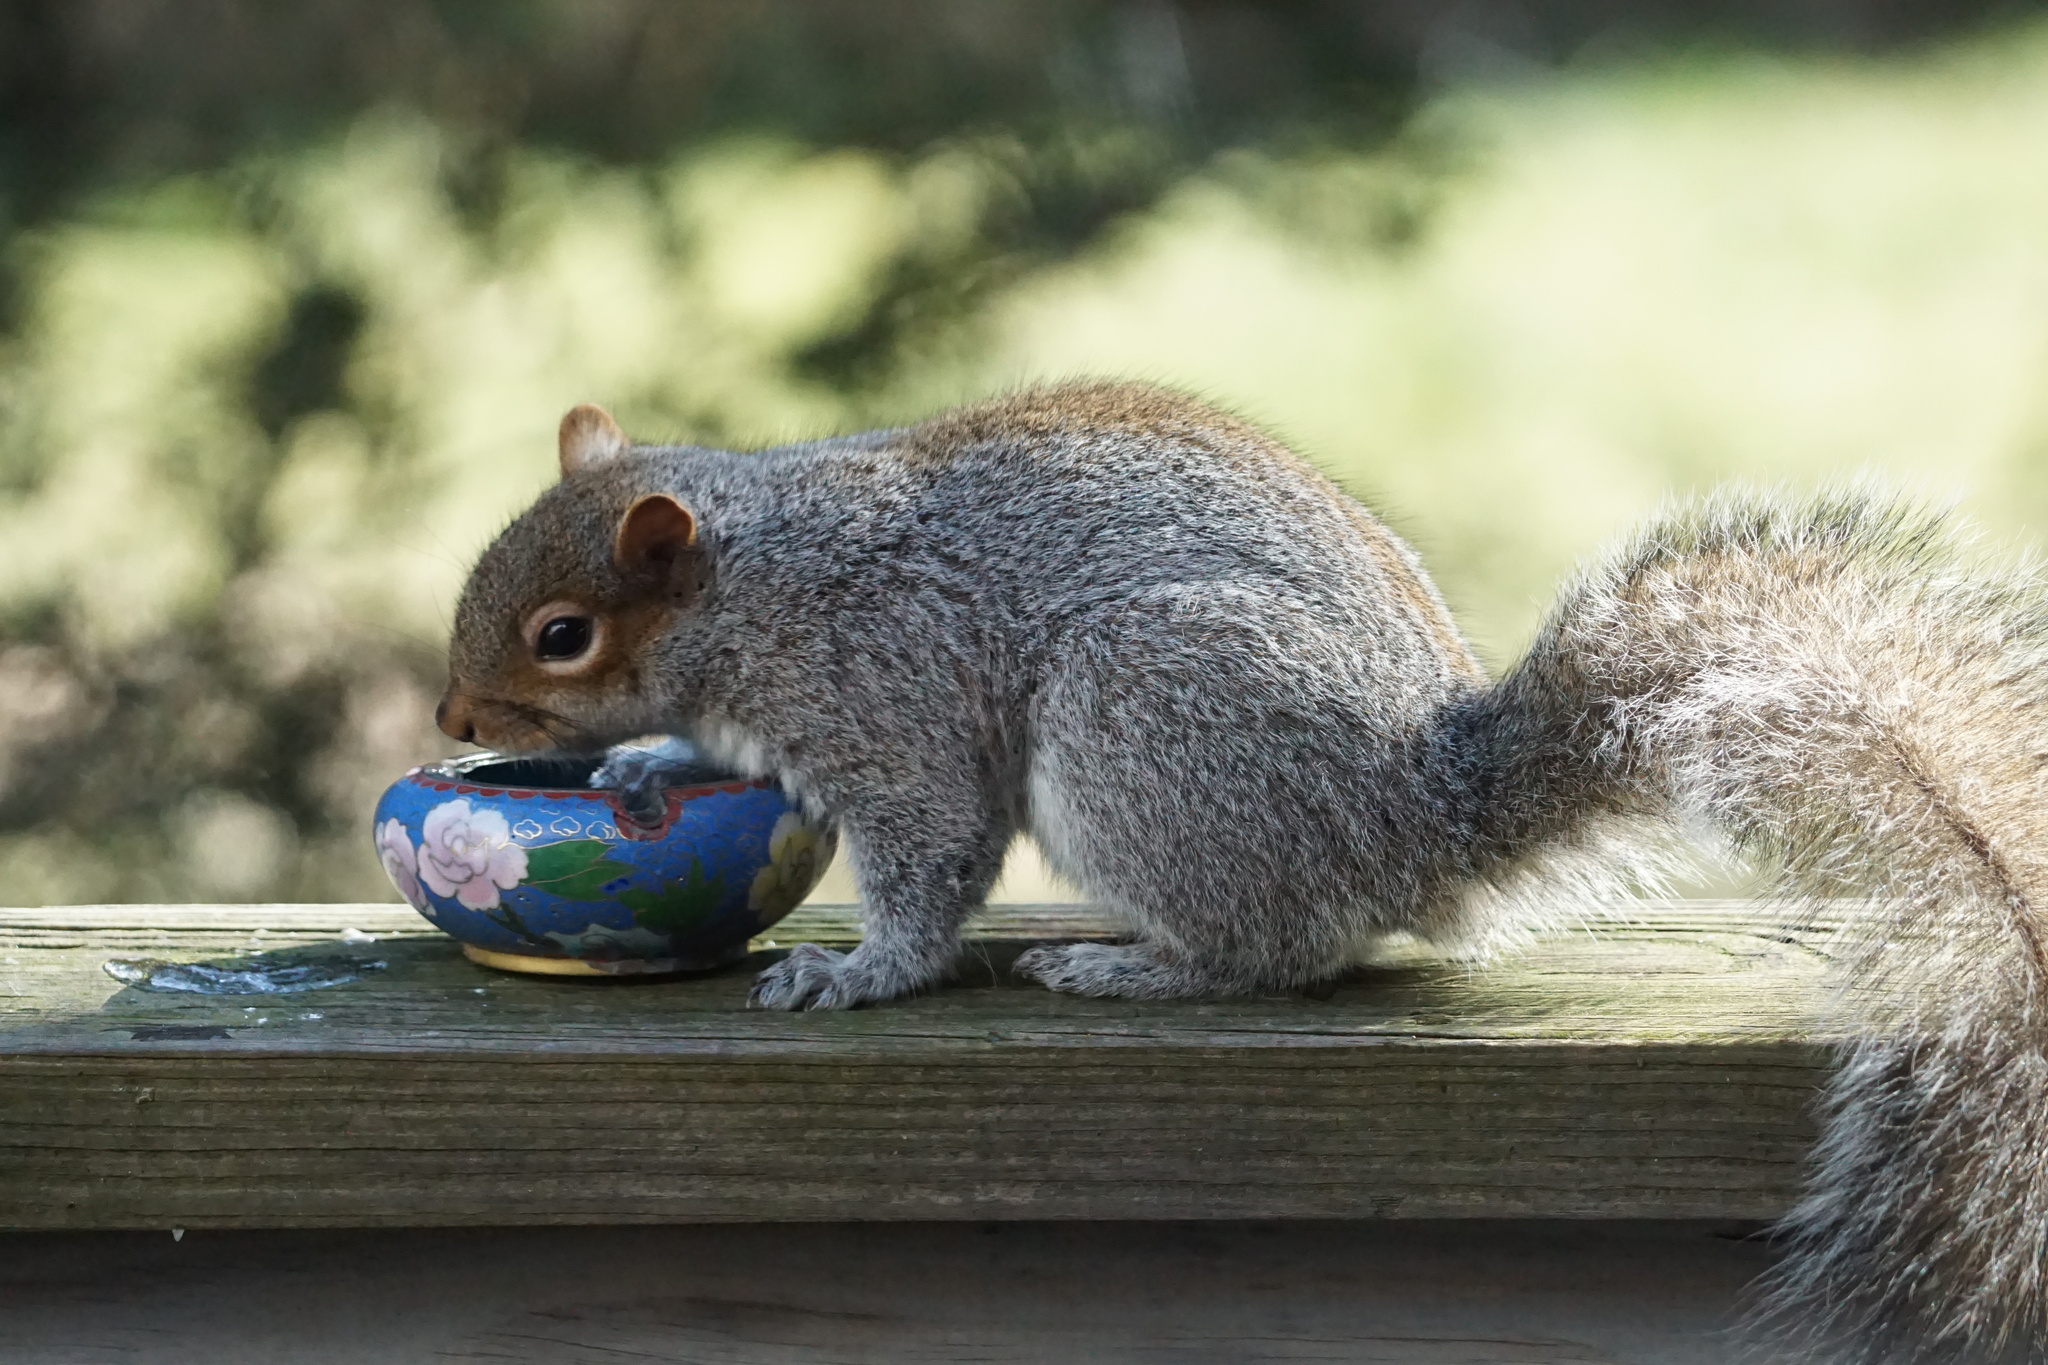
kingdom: Animalia
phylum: Chordata
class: Mammalia
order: Rodentia
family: Sciuridae
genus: Sciurus
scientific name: Sciurus carolinensis
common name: Eastern gray squirrel
